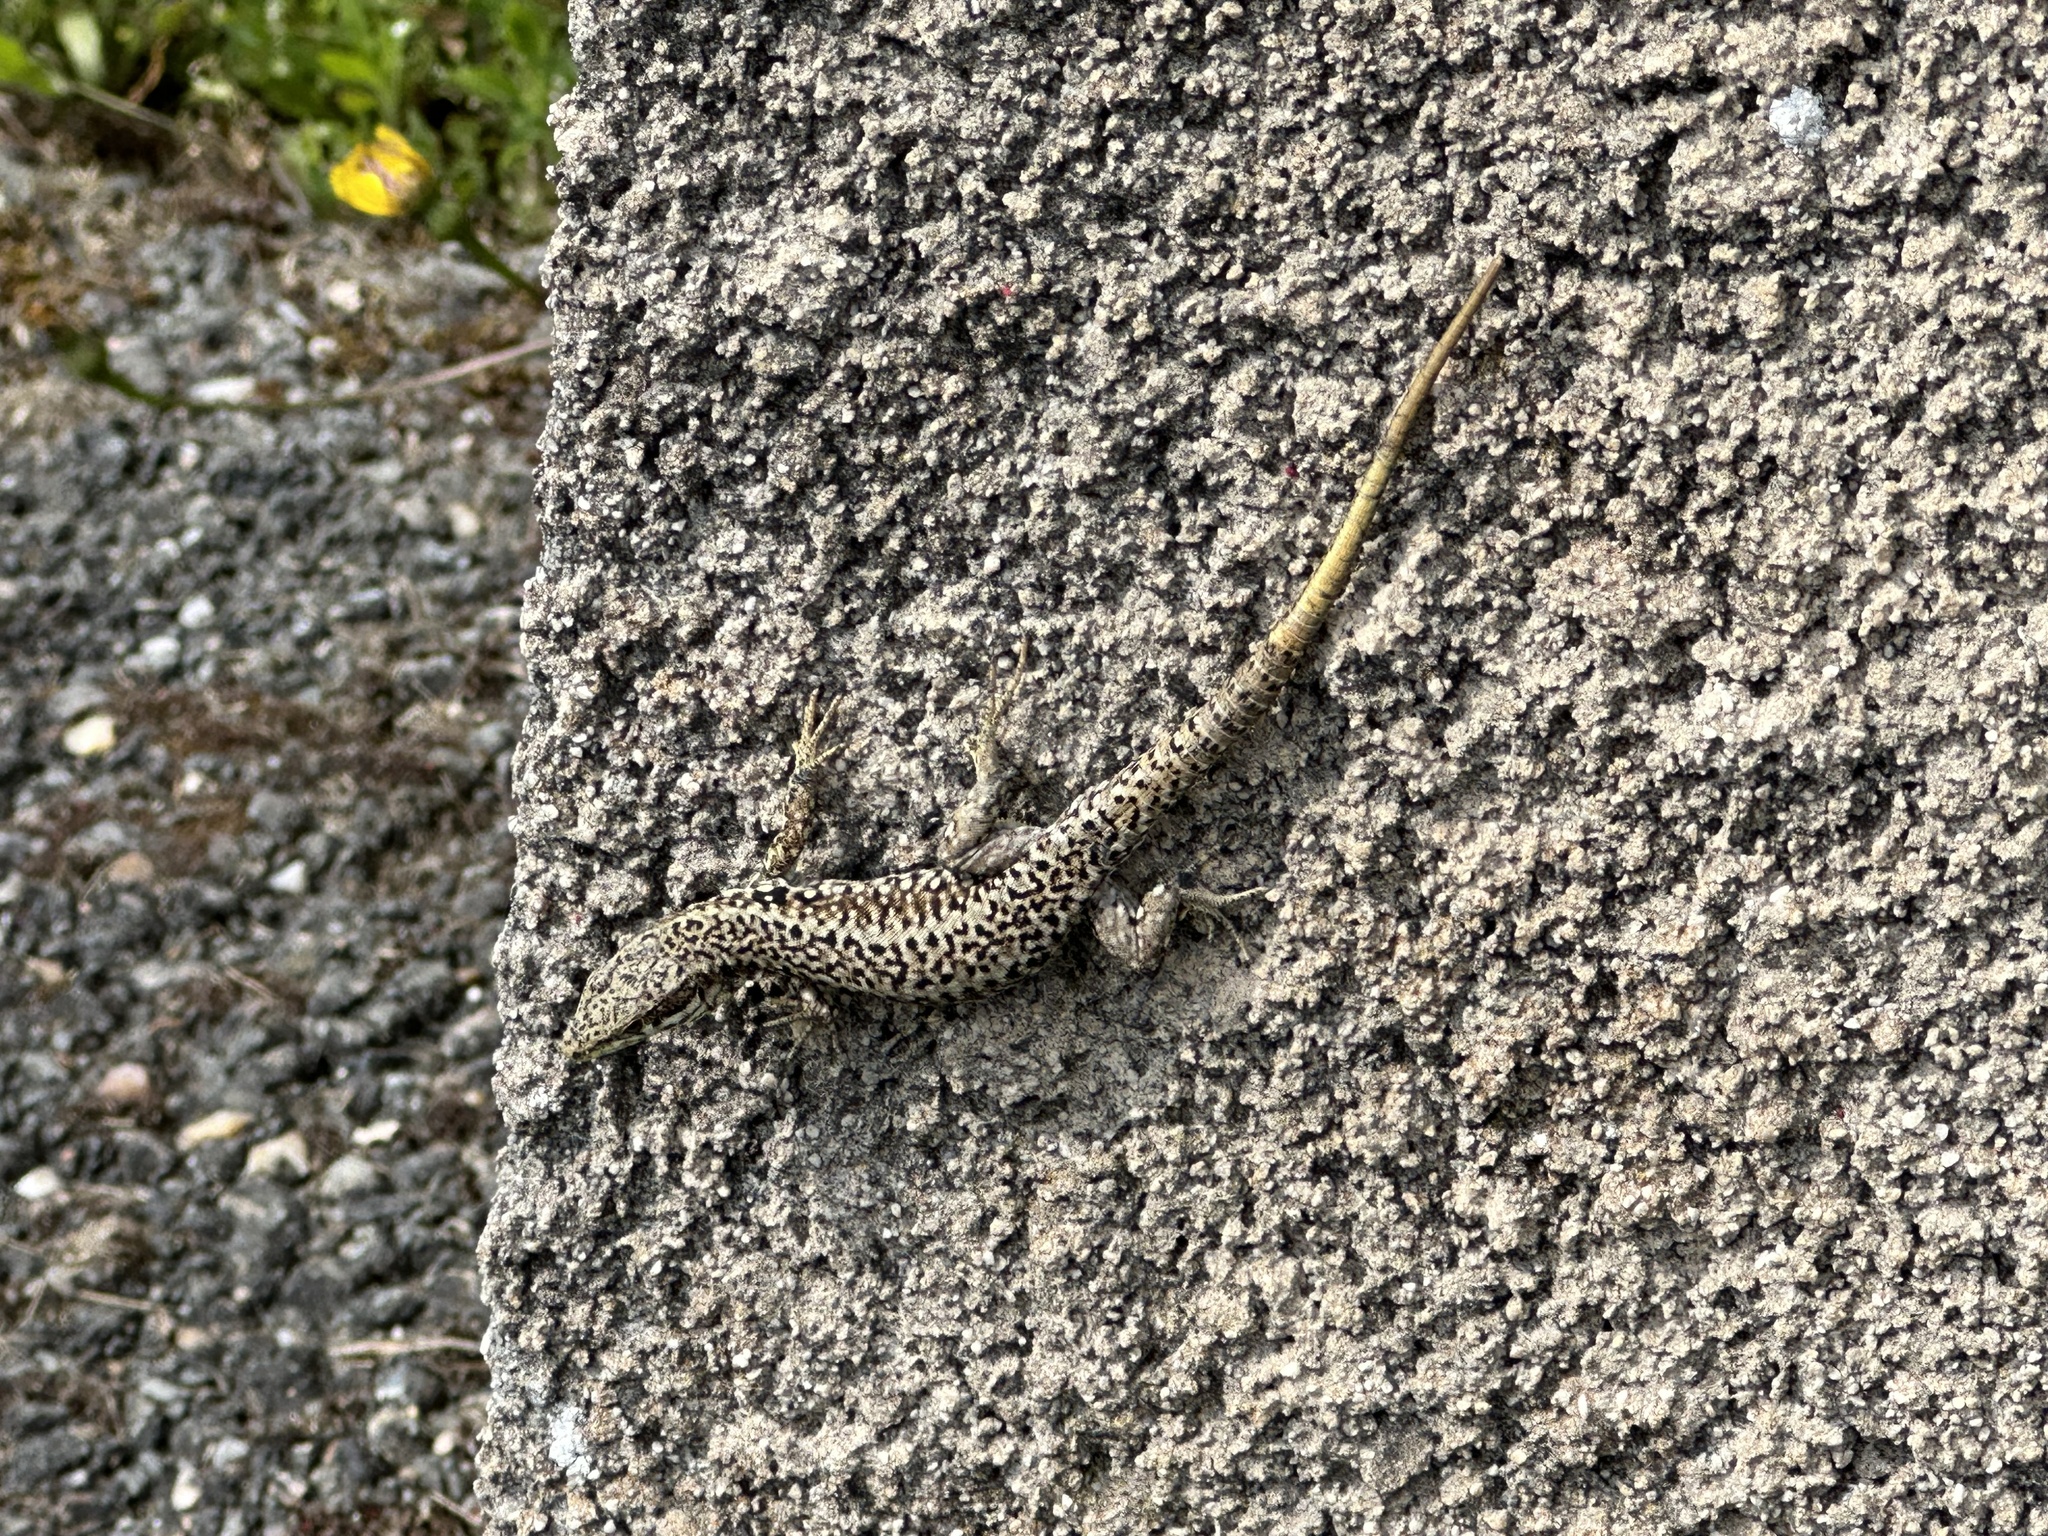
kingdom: Animalia
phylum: Chordata
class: Squamata
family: Lacertidae
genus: Podarcis
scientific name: Podarcis muralis
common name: Common wall lizard
